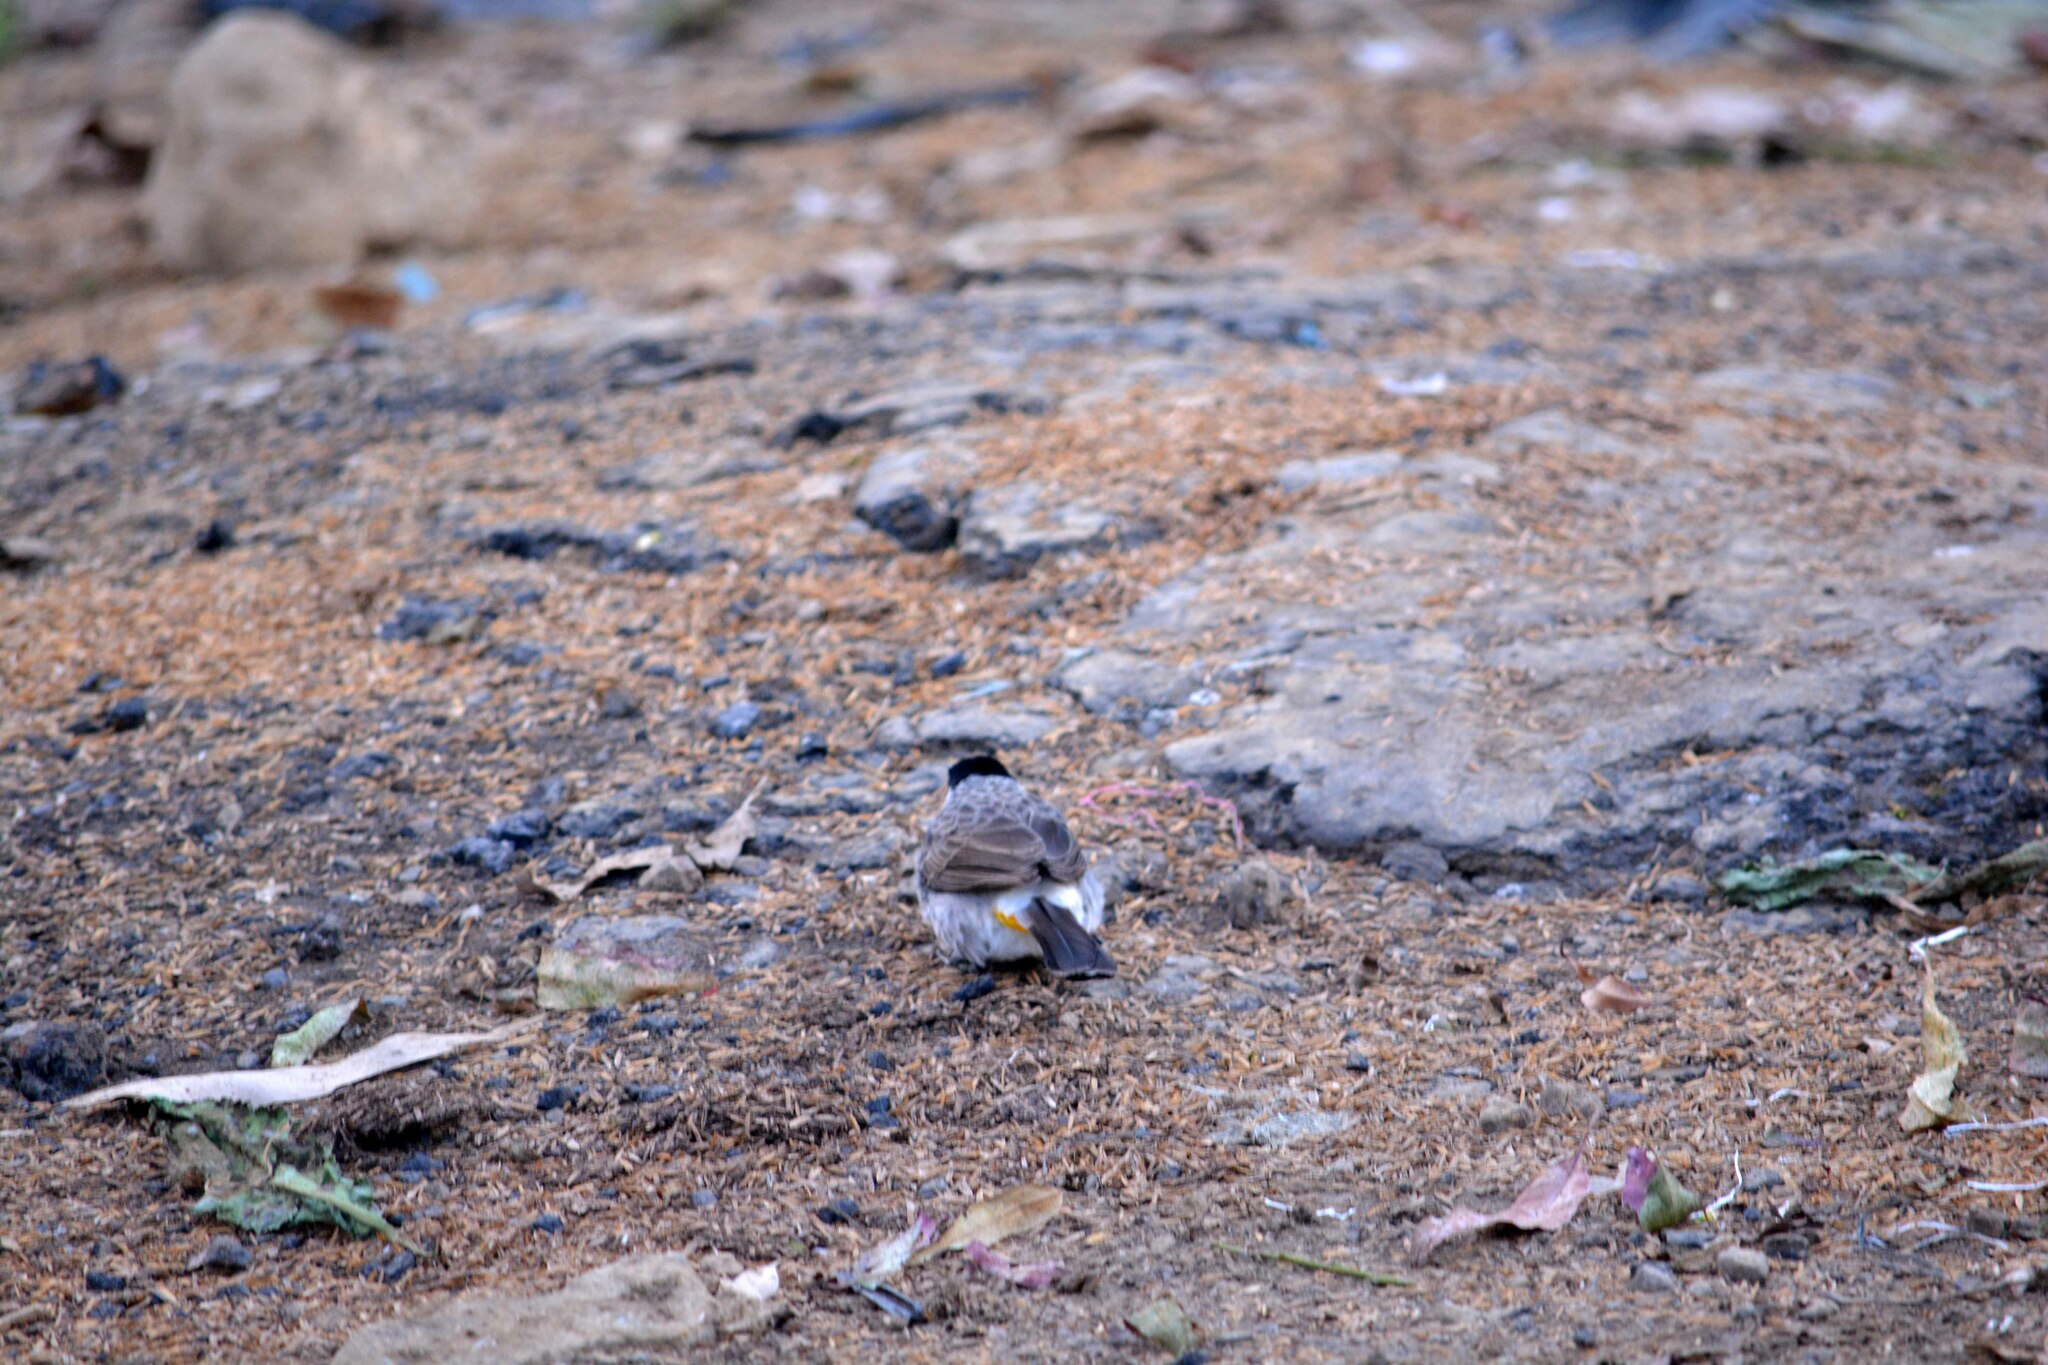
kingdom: Animalia
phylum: Chordata
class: Aves
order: Passeriformes
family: Pycnonotidae
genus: Pycnonotus
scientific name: Pycnonotus aurigaster
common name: Sooty-headed bulbul
